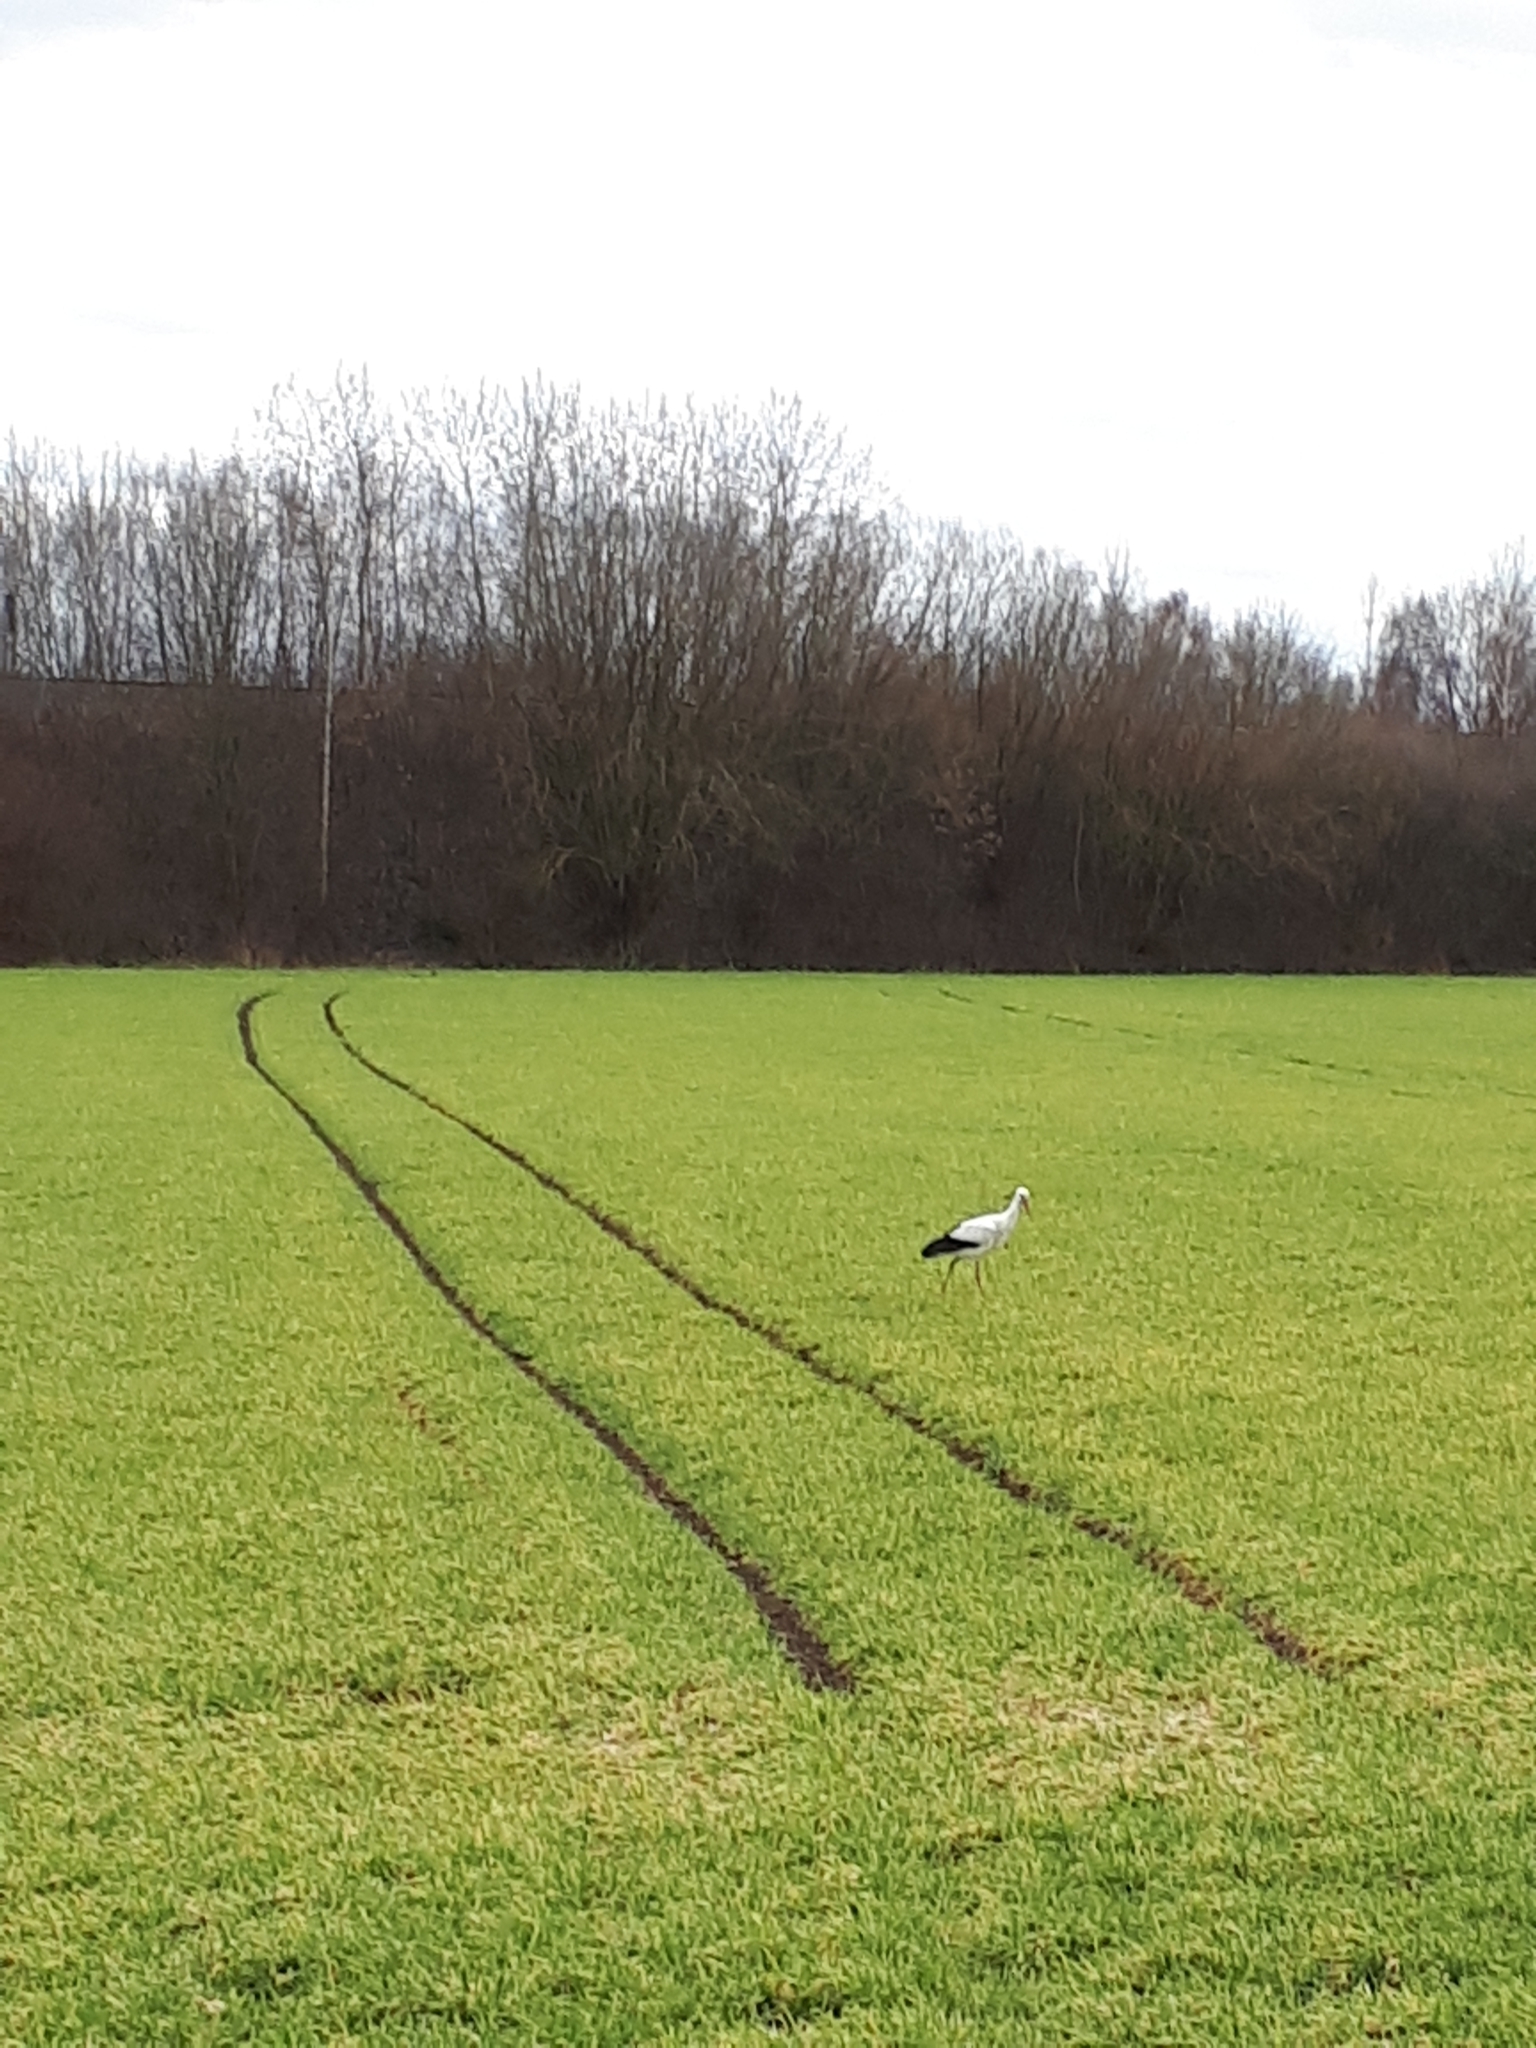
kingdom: Animalia
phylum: Chordata
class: Aves
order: Ciconiiformes
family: Ciconiidae
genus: Ciconia
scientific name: Ciconia ciconia
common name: White stork
